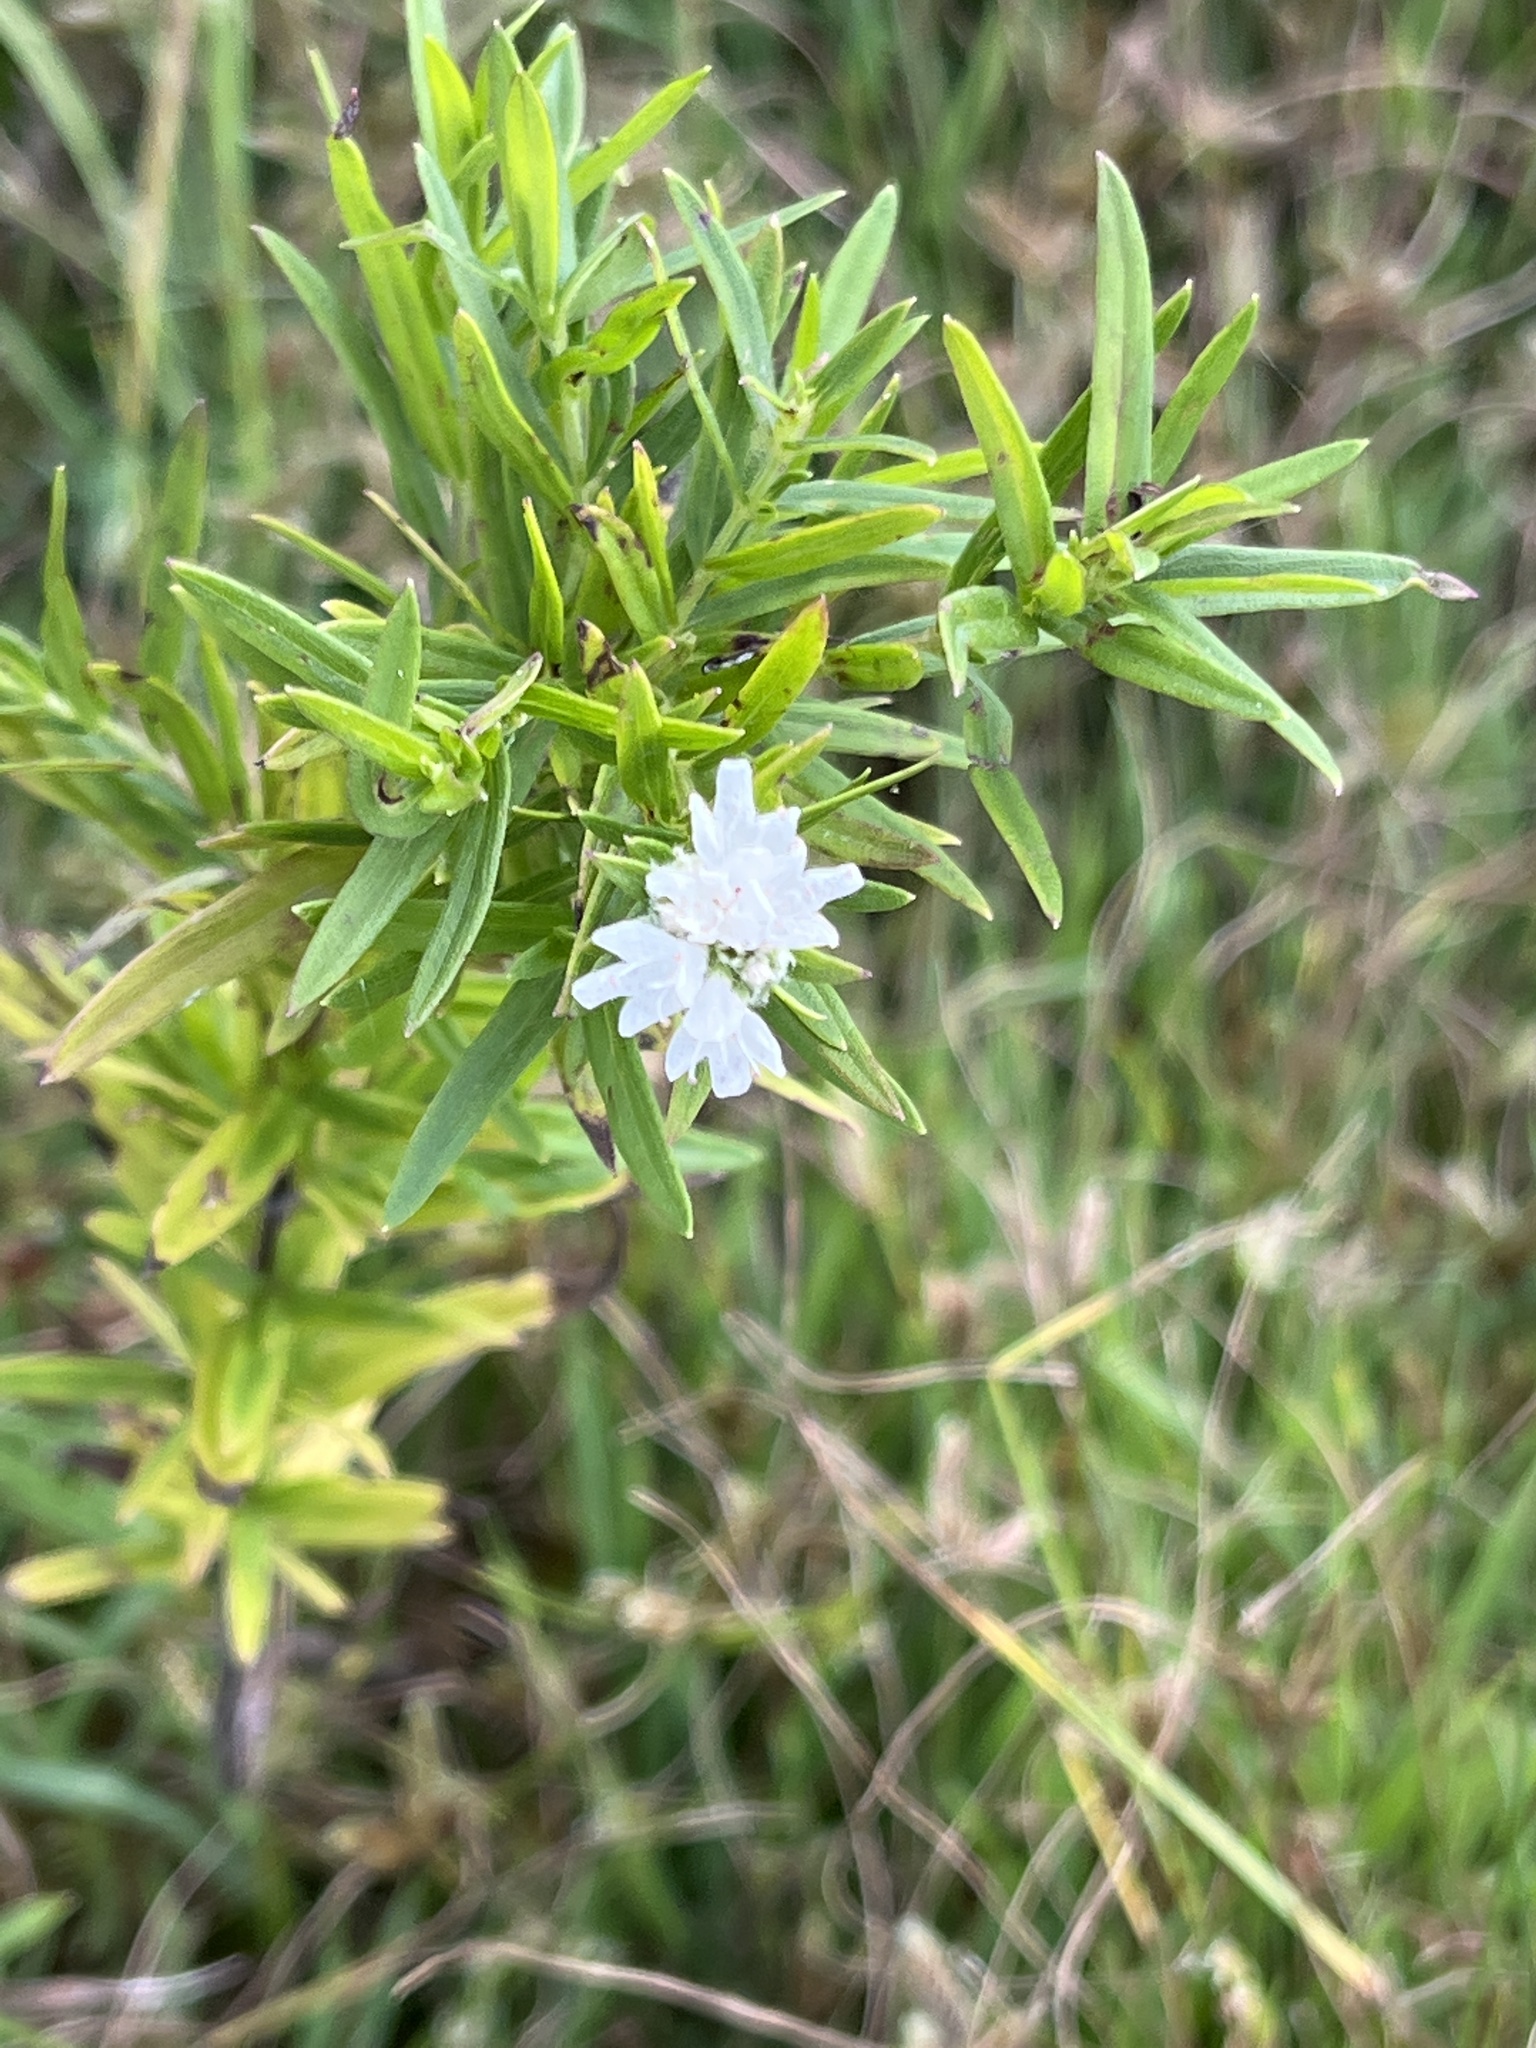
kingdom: Plantae
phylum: Tracheophyta
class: Magnoliopsida
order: Lamiales
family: Lamiaceae
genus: Pycnanthemum
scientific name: Pycnanthemum virginianum
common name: Virginia mountain-mint
